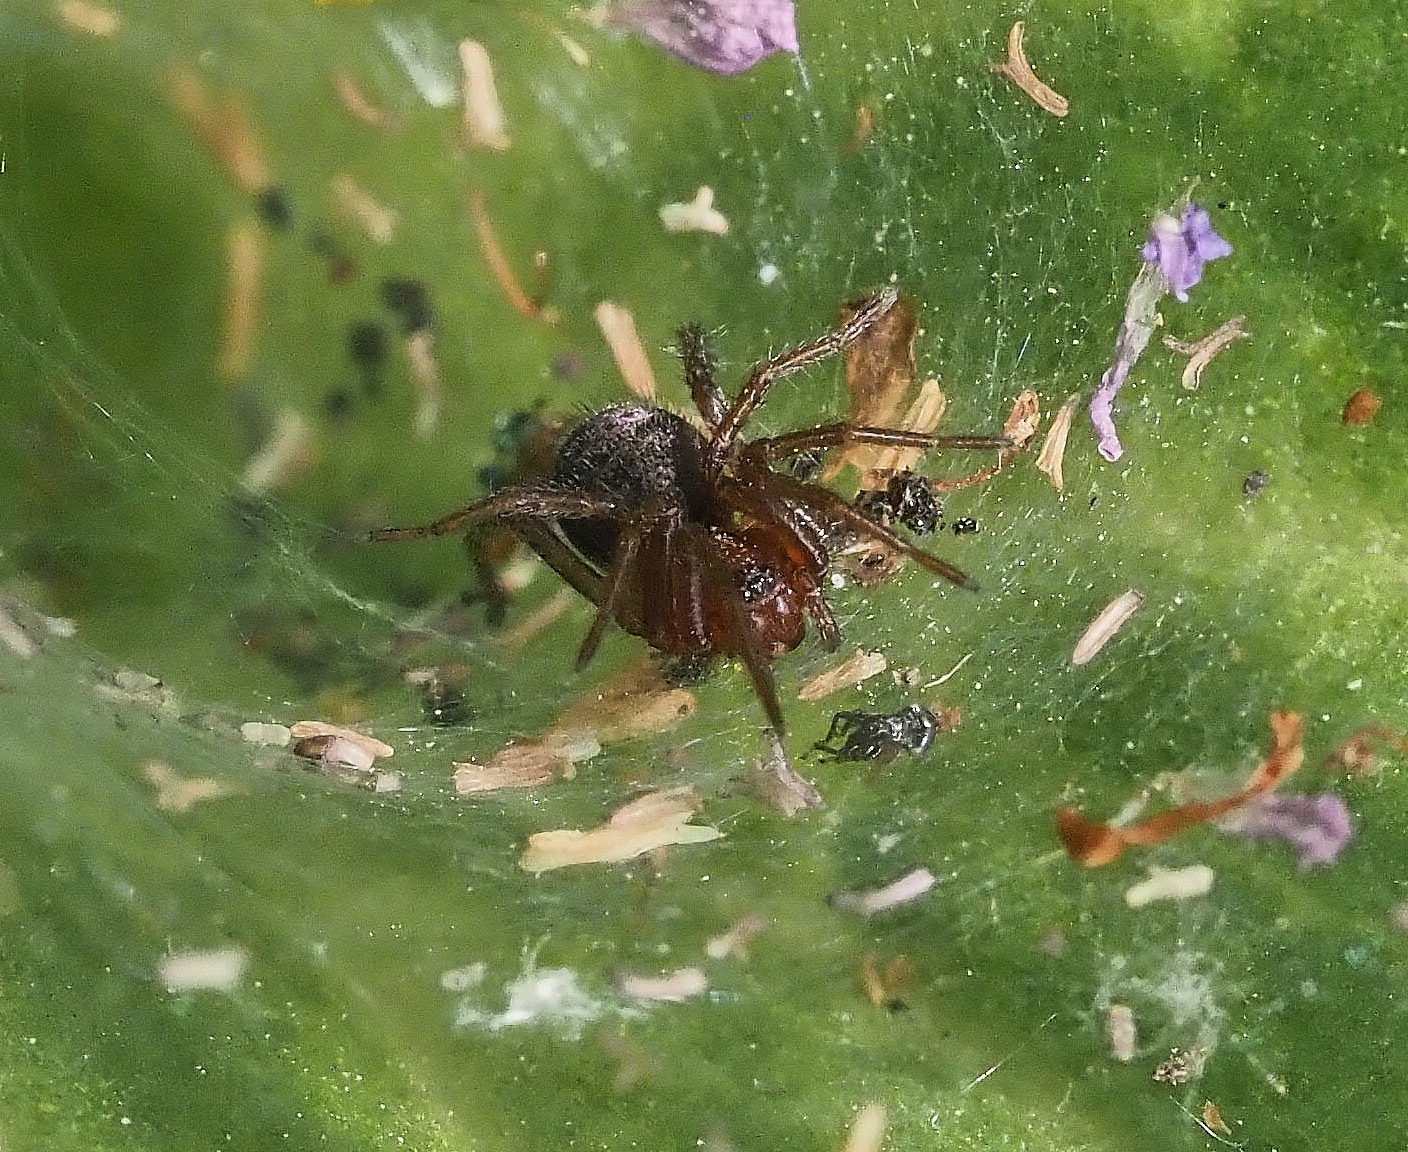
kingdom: Animalia
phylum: Arthropoda
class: Arachnida
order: Araneae
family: Agelenidae
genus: Agelena
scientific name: Agelena labyrinthica
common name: Labyrinth spider
